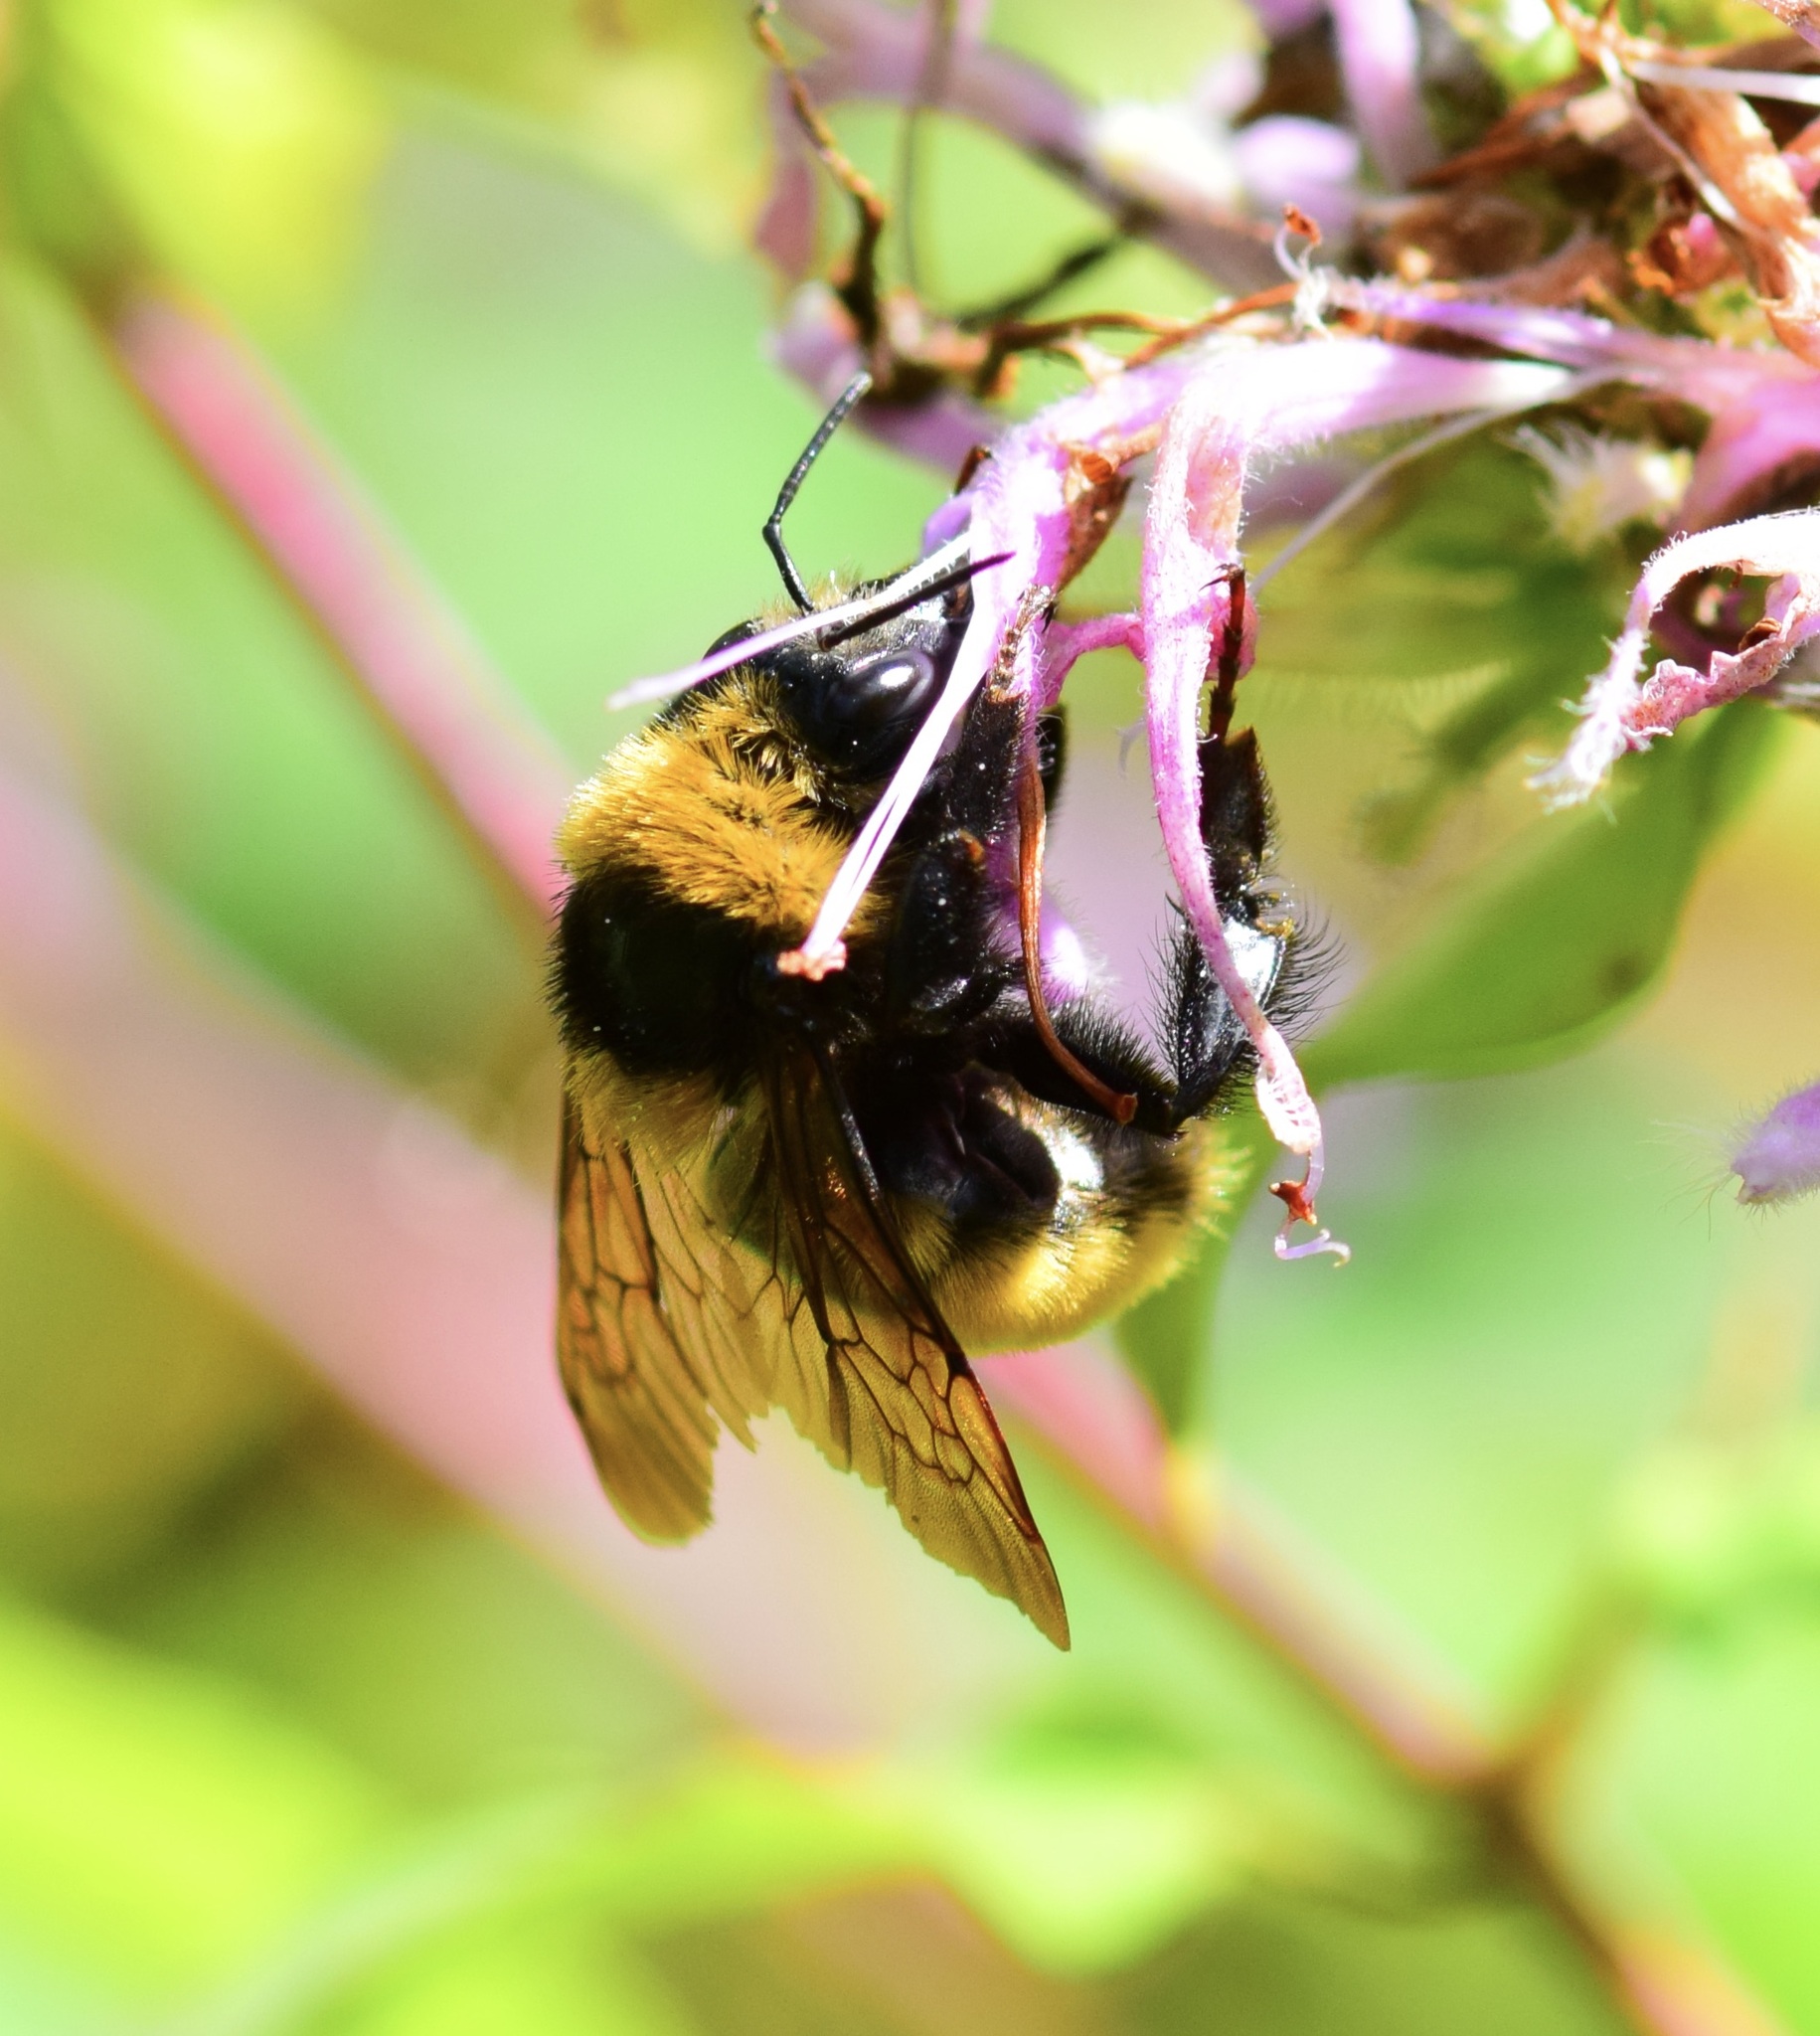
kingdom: Animalia
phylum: Arthropoda
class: Insecta
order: Hymenoptera
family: Apidae
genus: Bombus
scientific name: Bombus borealis
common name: Northern amber bumble bee
